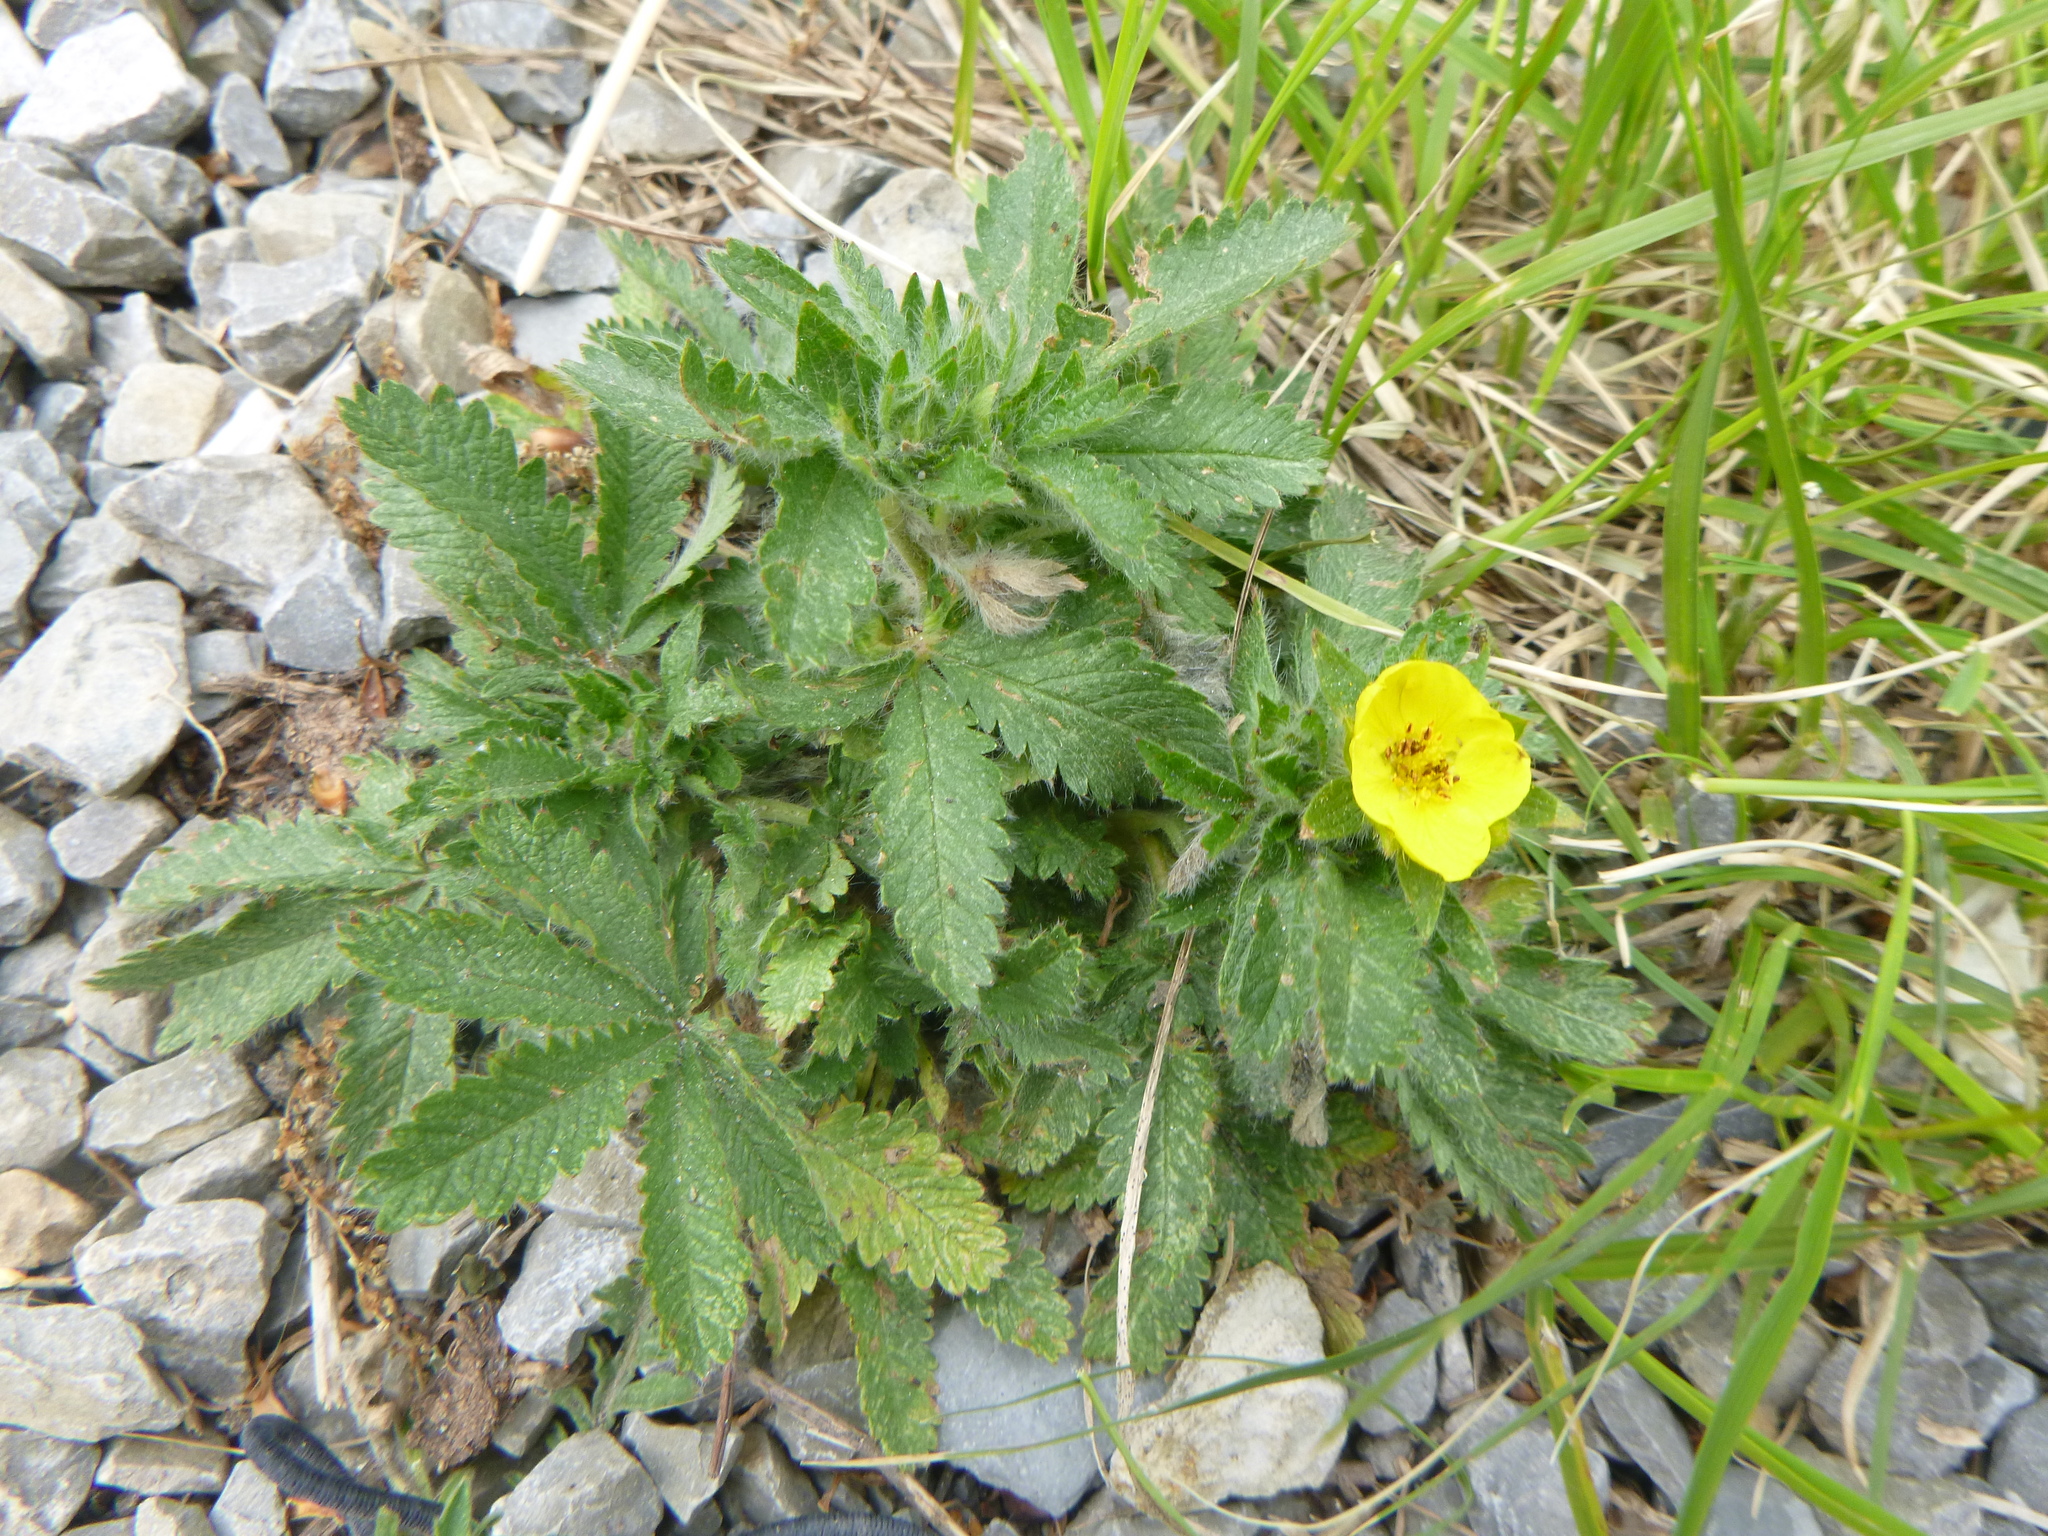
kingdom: Plantae
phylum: Tracheophyta
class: Magnoliopsida
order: Rosales
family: Rosaceae
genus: Potentilla
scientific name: Potentilla reptans
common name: Creeping cinquefoil
